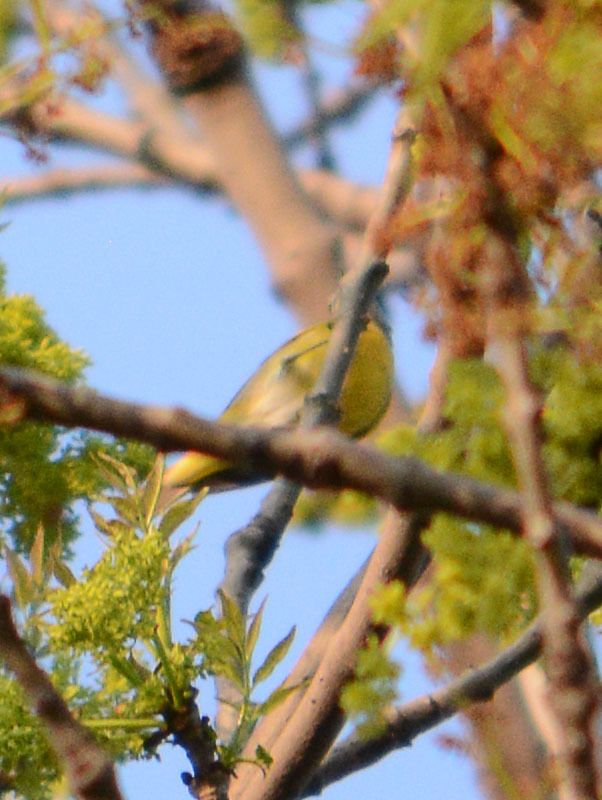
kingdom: Animalia
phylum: Chordata
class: Aves
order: Passeriformes
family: Parulidae
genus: Leiothlypis
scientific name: Leiothlypis ruficapilla
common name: Nashville warbler
